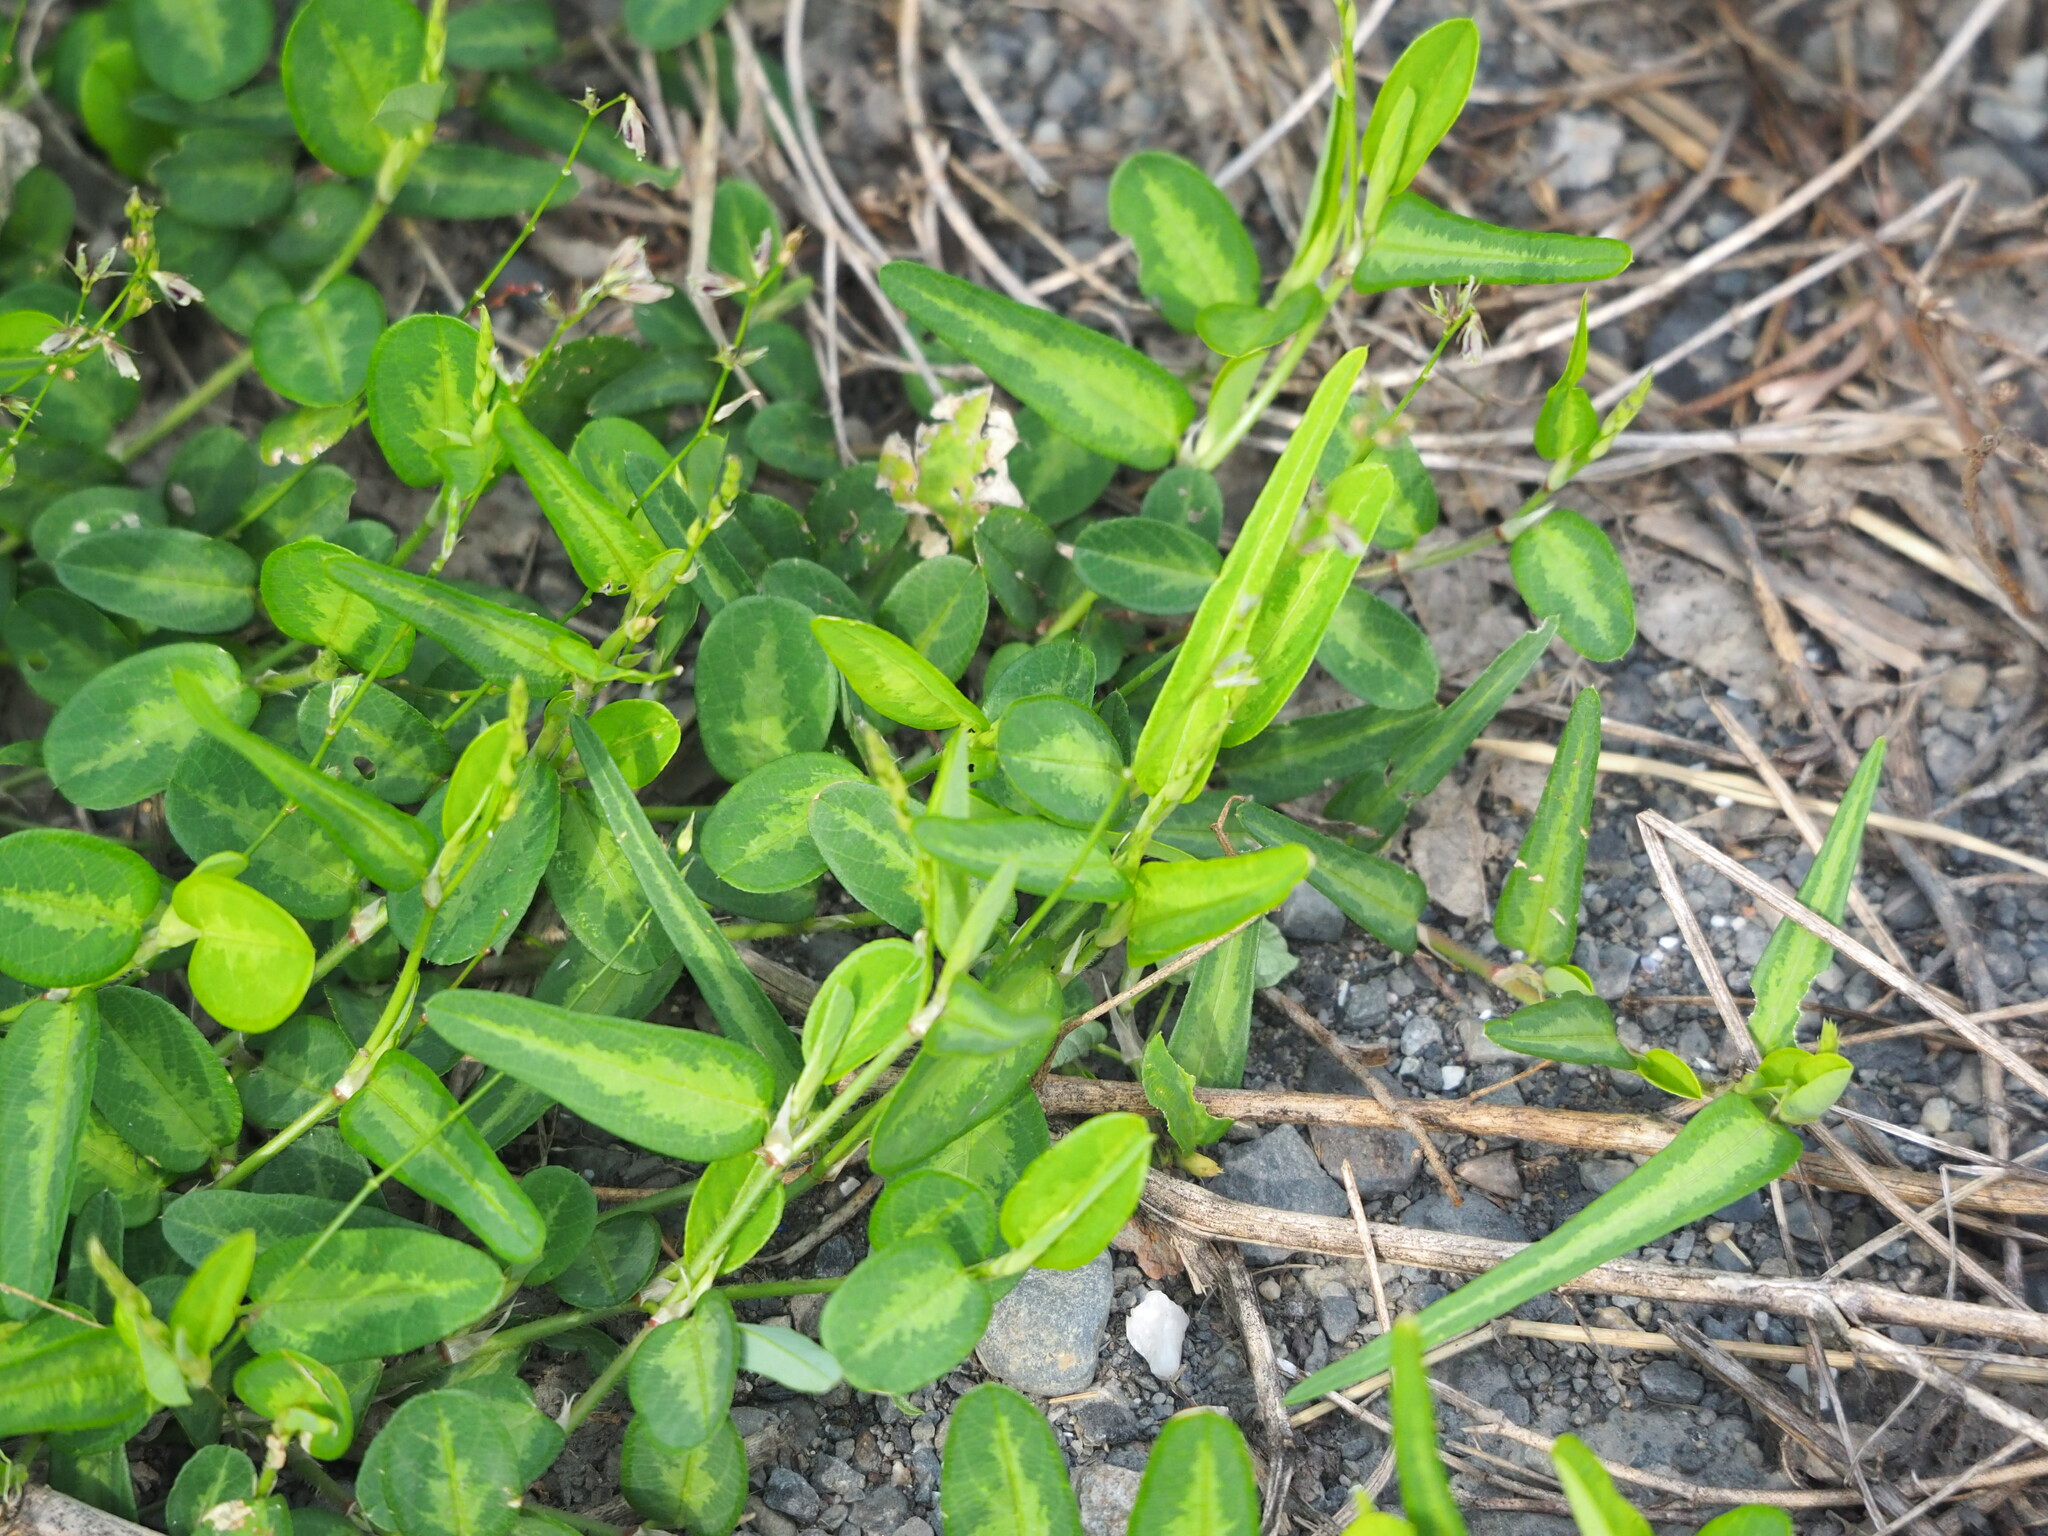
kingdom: Plantae
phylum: Tracheophyta
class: Magnoliopsida
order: Fabales
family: Fabaceae
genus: Alysicarpus
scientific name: Alysicarpus ovalifolius
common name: Alyce clover
